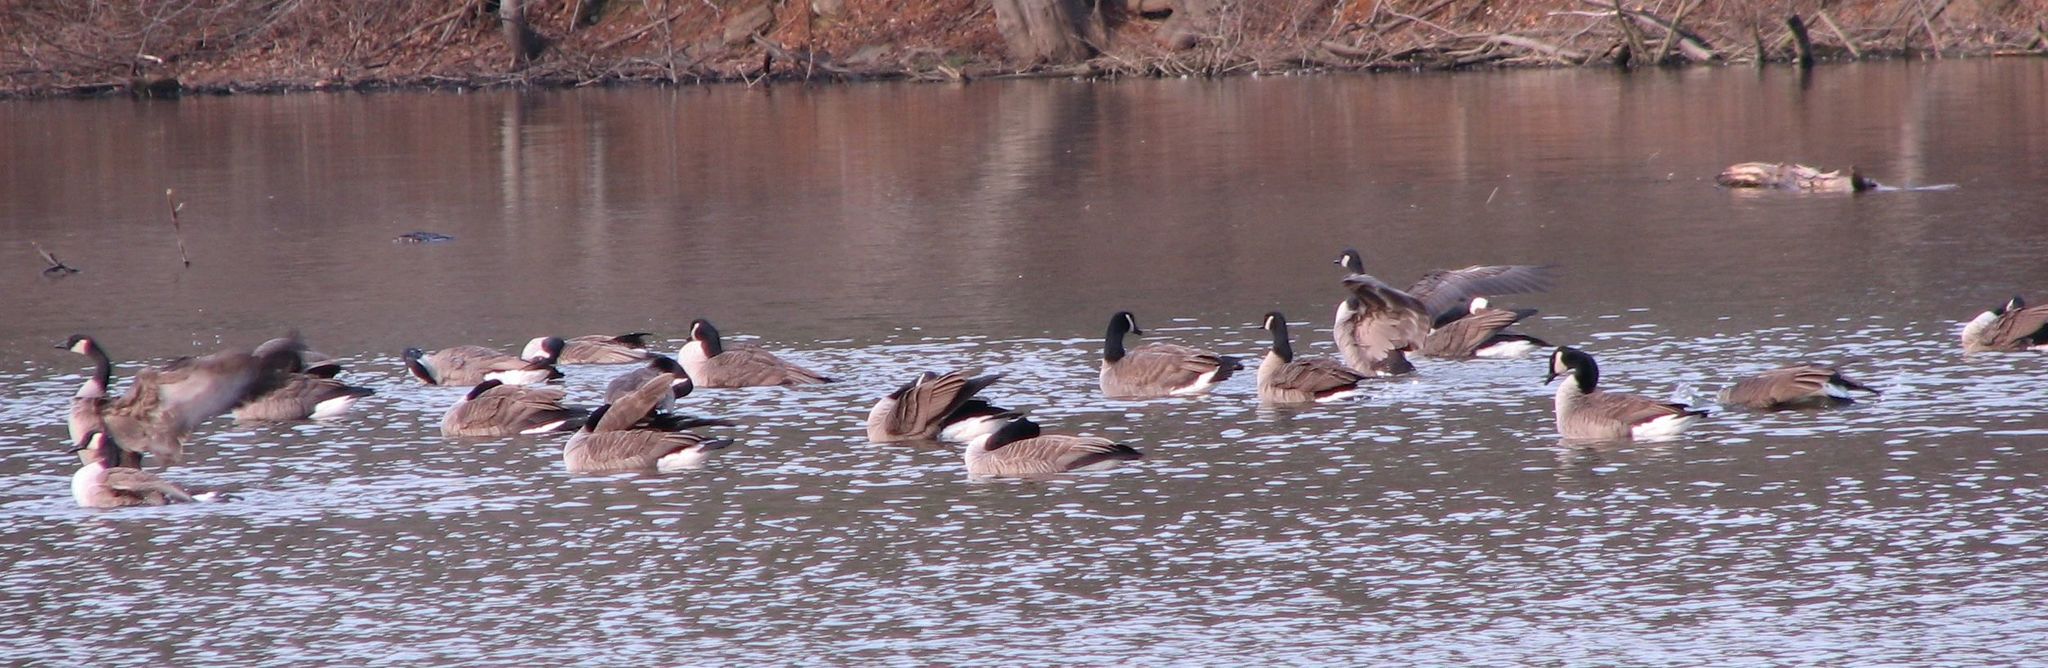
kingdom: Animalia
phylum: Chordata
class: Aves
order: Anseriformes
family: Anatidae
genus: Branta
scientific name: Branta canadensis
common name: Canada goose
